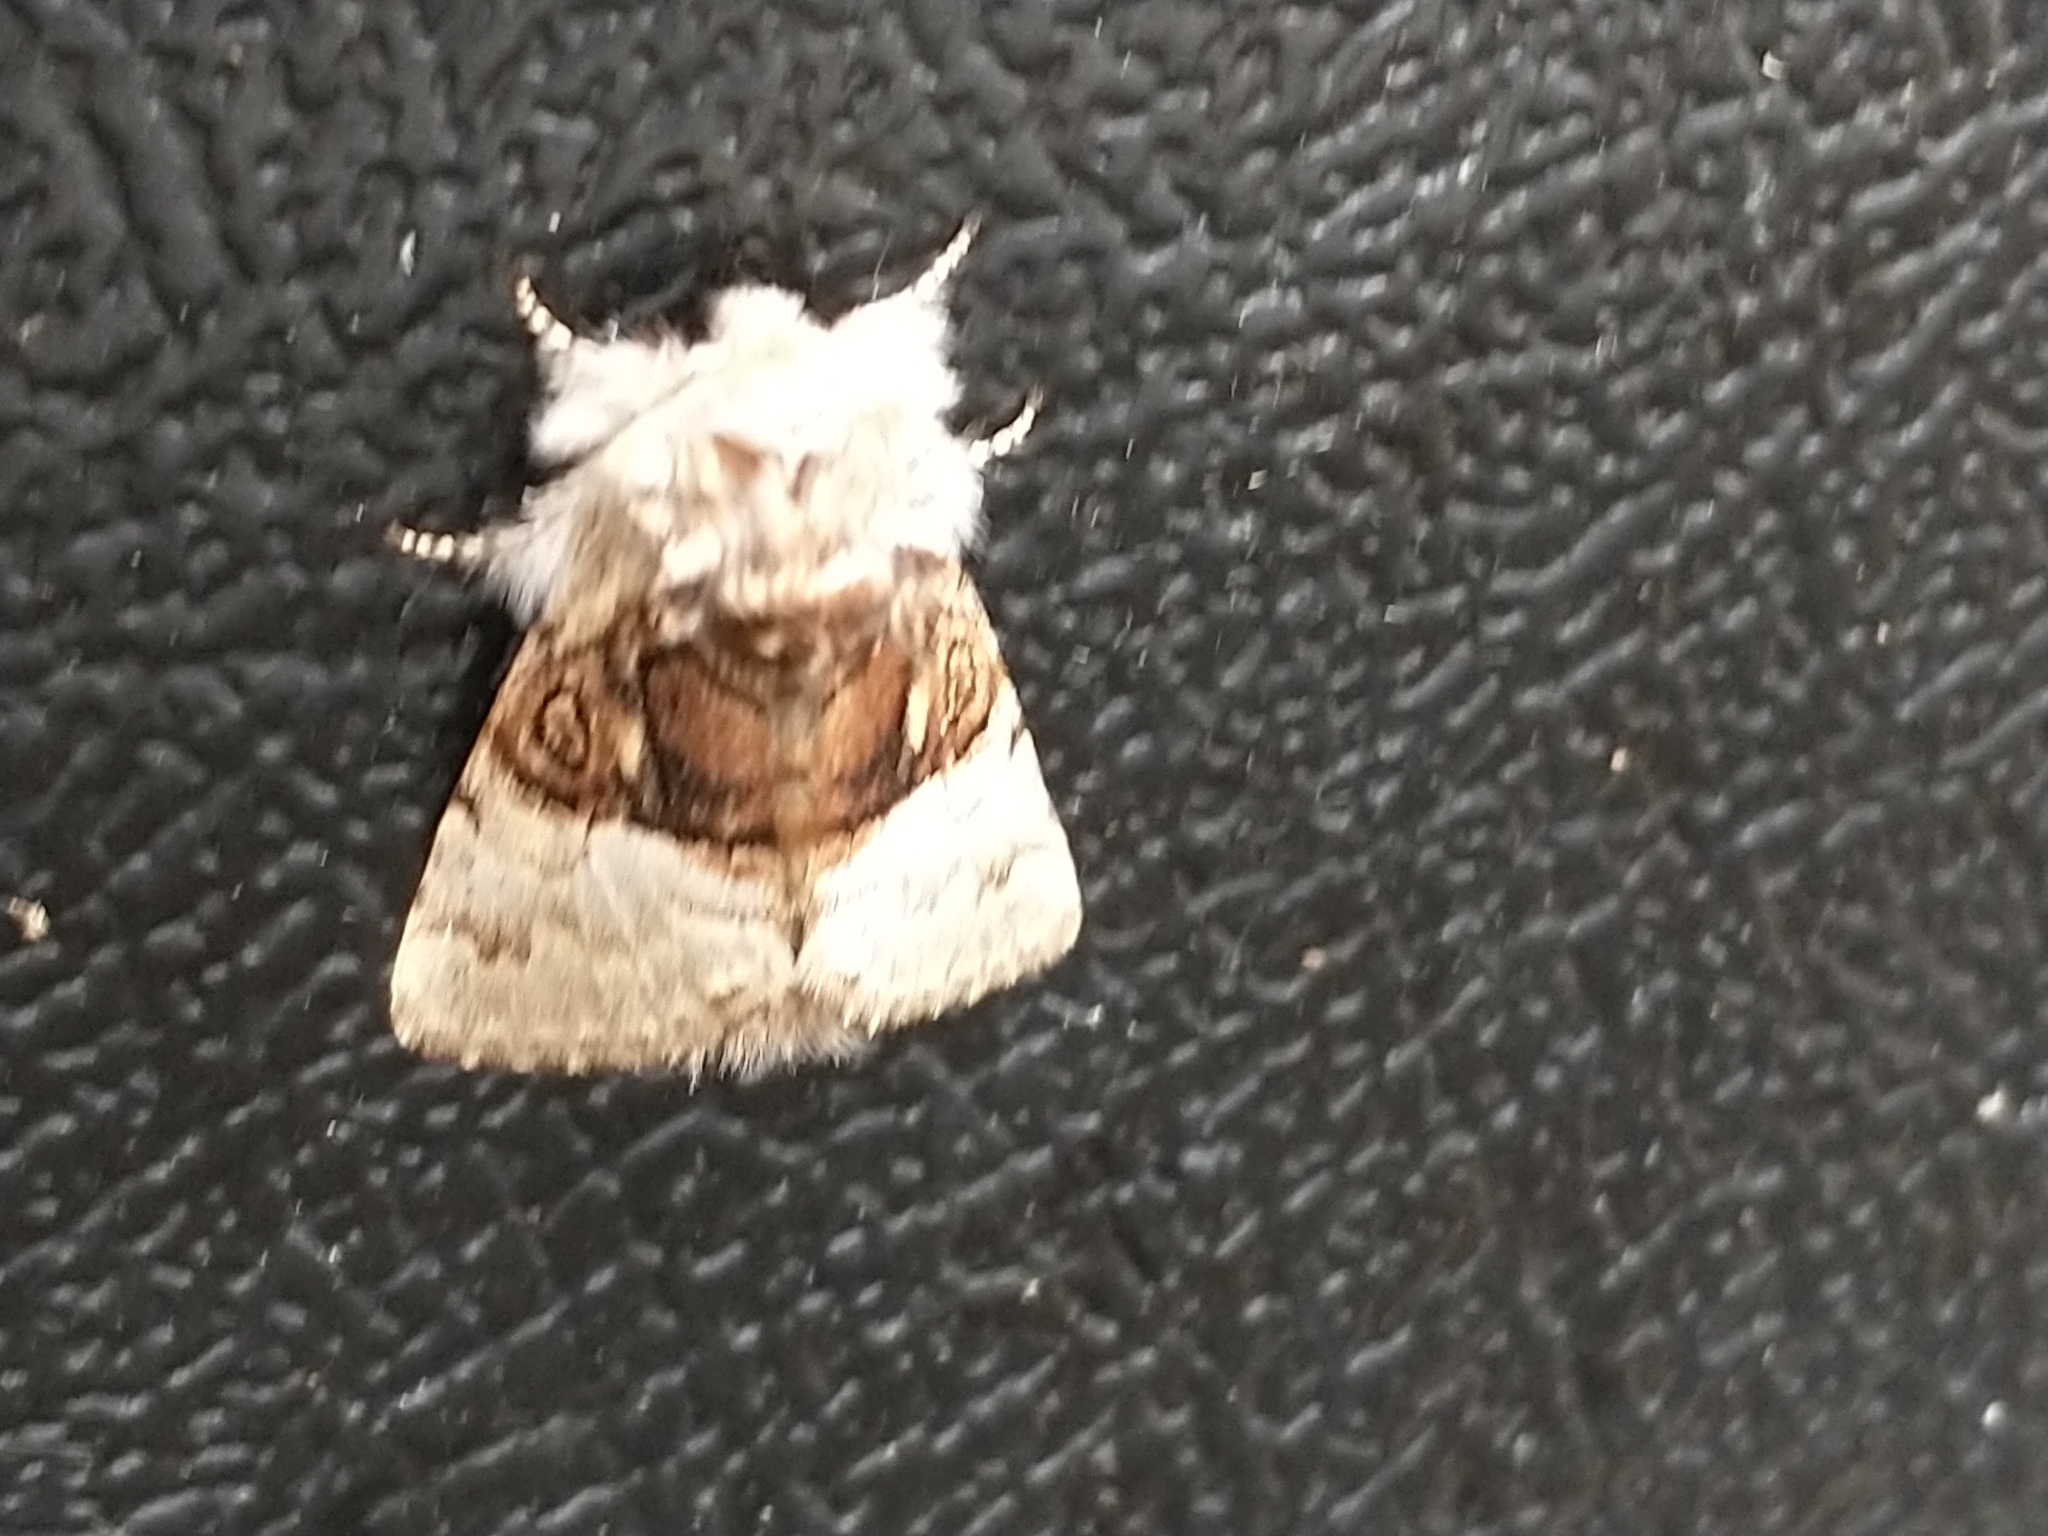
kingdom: Animalia
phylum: Arthropoda
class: Insecta
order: Lepidoptera
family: Noctuidae
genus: Colocasia
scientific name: Colocasia coryli
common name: Nut-tree tussock
